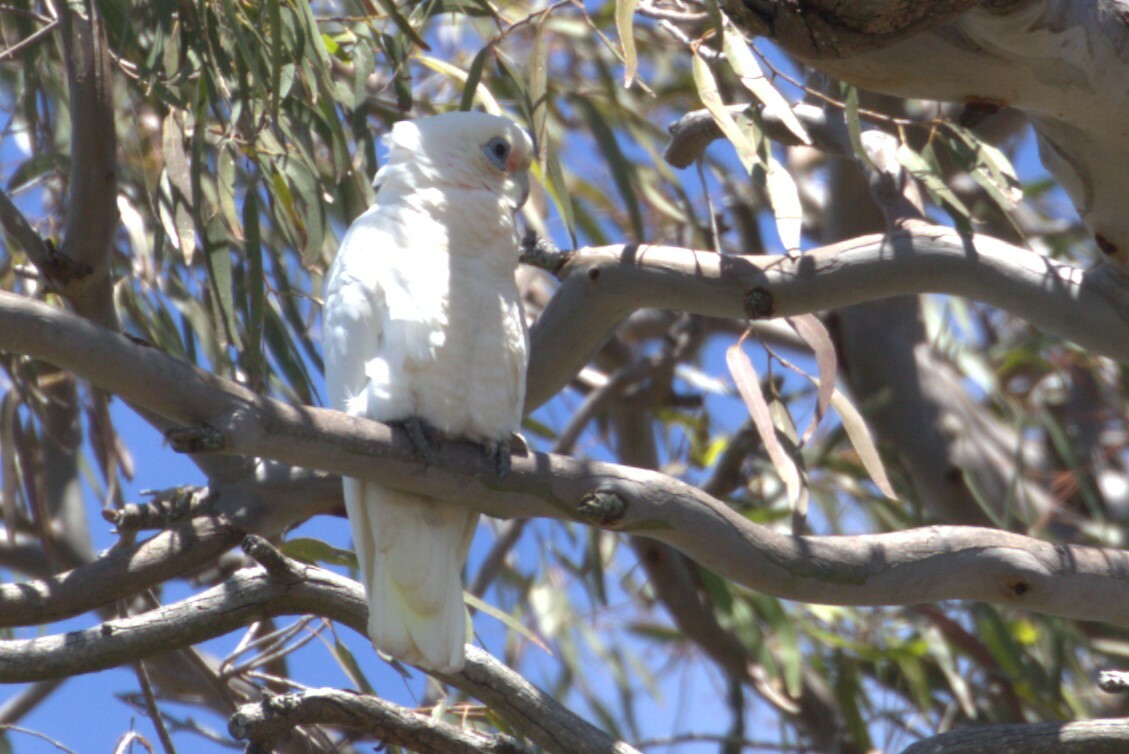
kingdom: Animalia
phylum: Chordata
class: Aves
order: Psittaciformes
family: Psittacidae
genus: Cacatua
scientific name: Cacatua sanguinea
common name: Little corella
